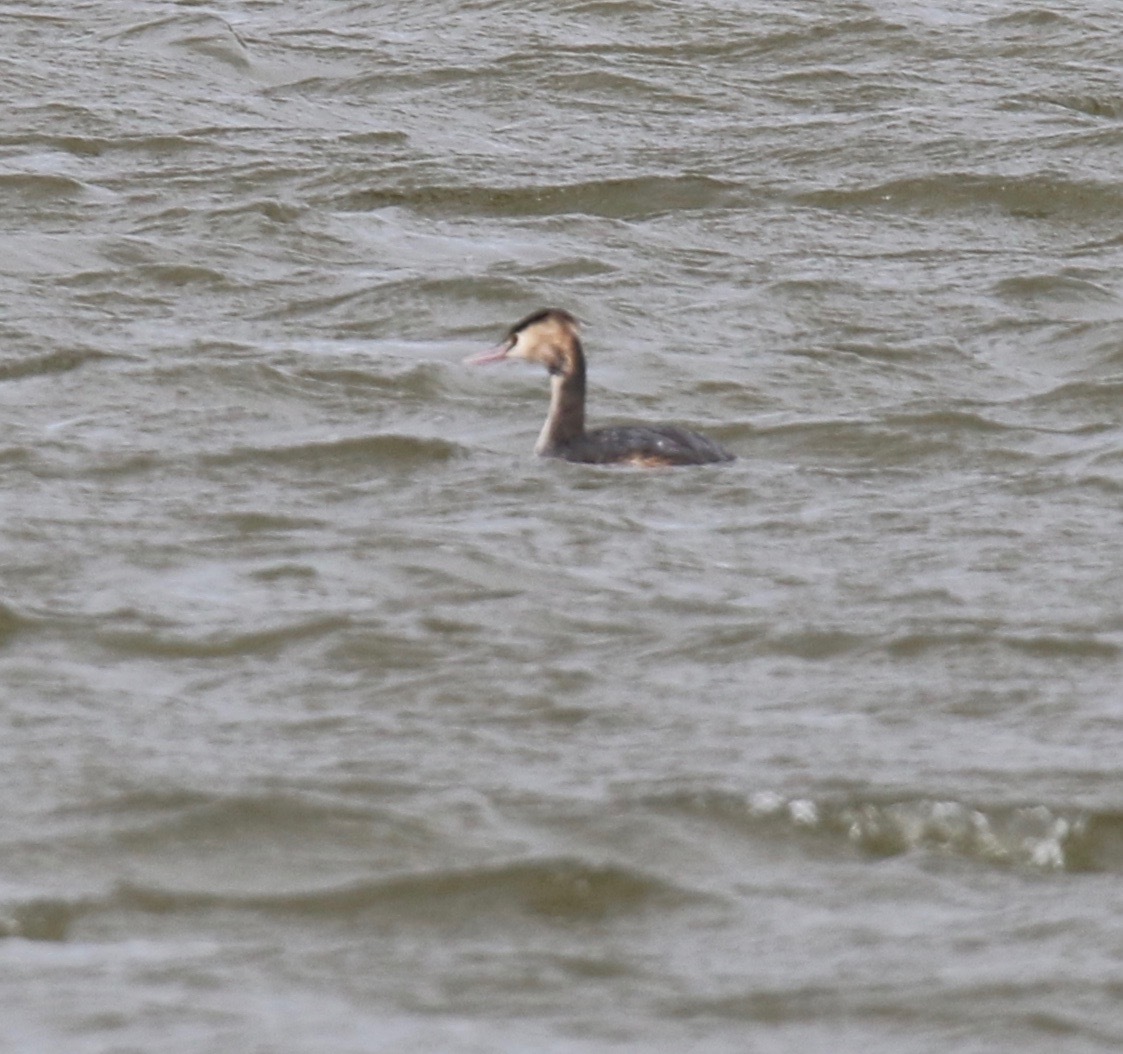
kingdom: Animalia
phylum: Chordata
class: Aves
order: Podicipediformes
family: Podicipedidae
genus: Podiceps
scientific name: Podiceps cristatus
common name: Great crested grebe
